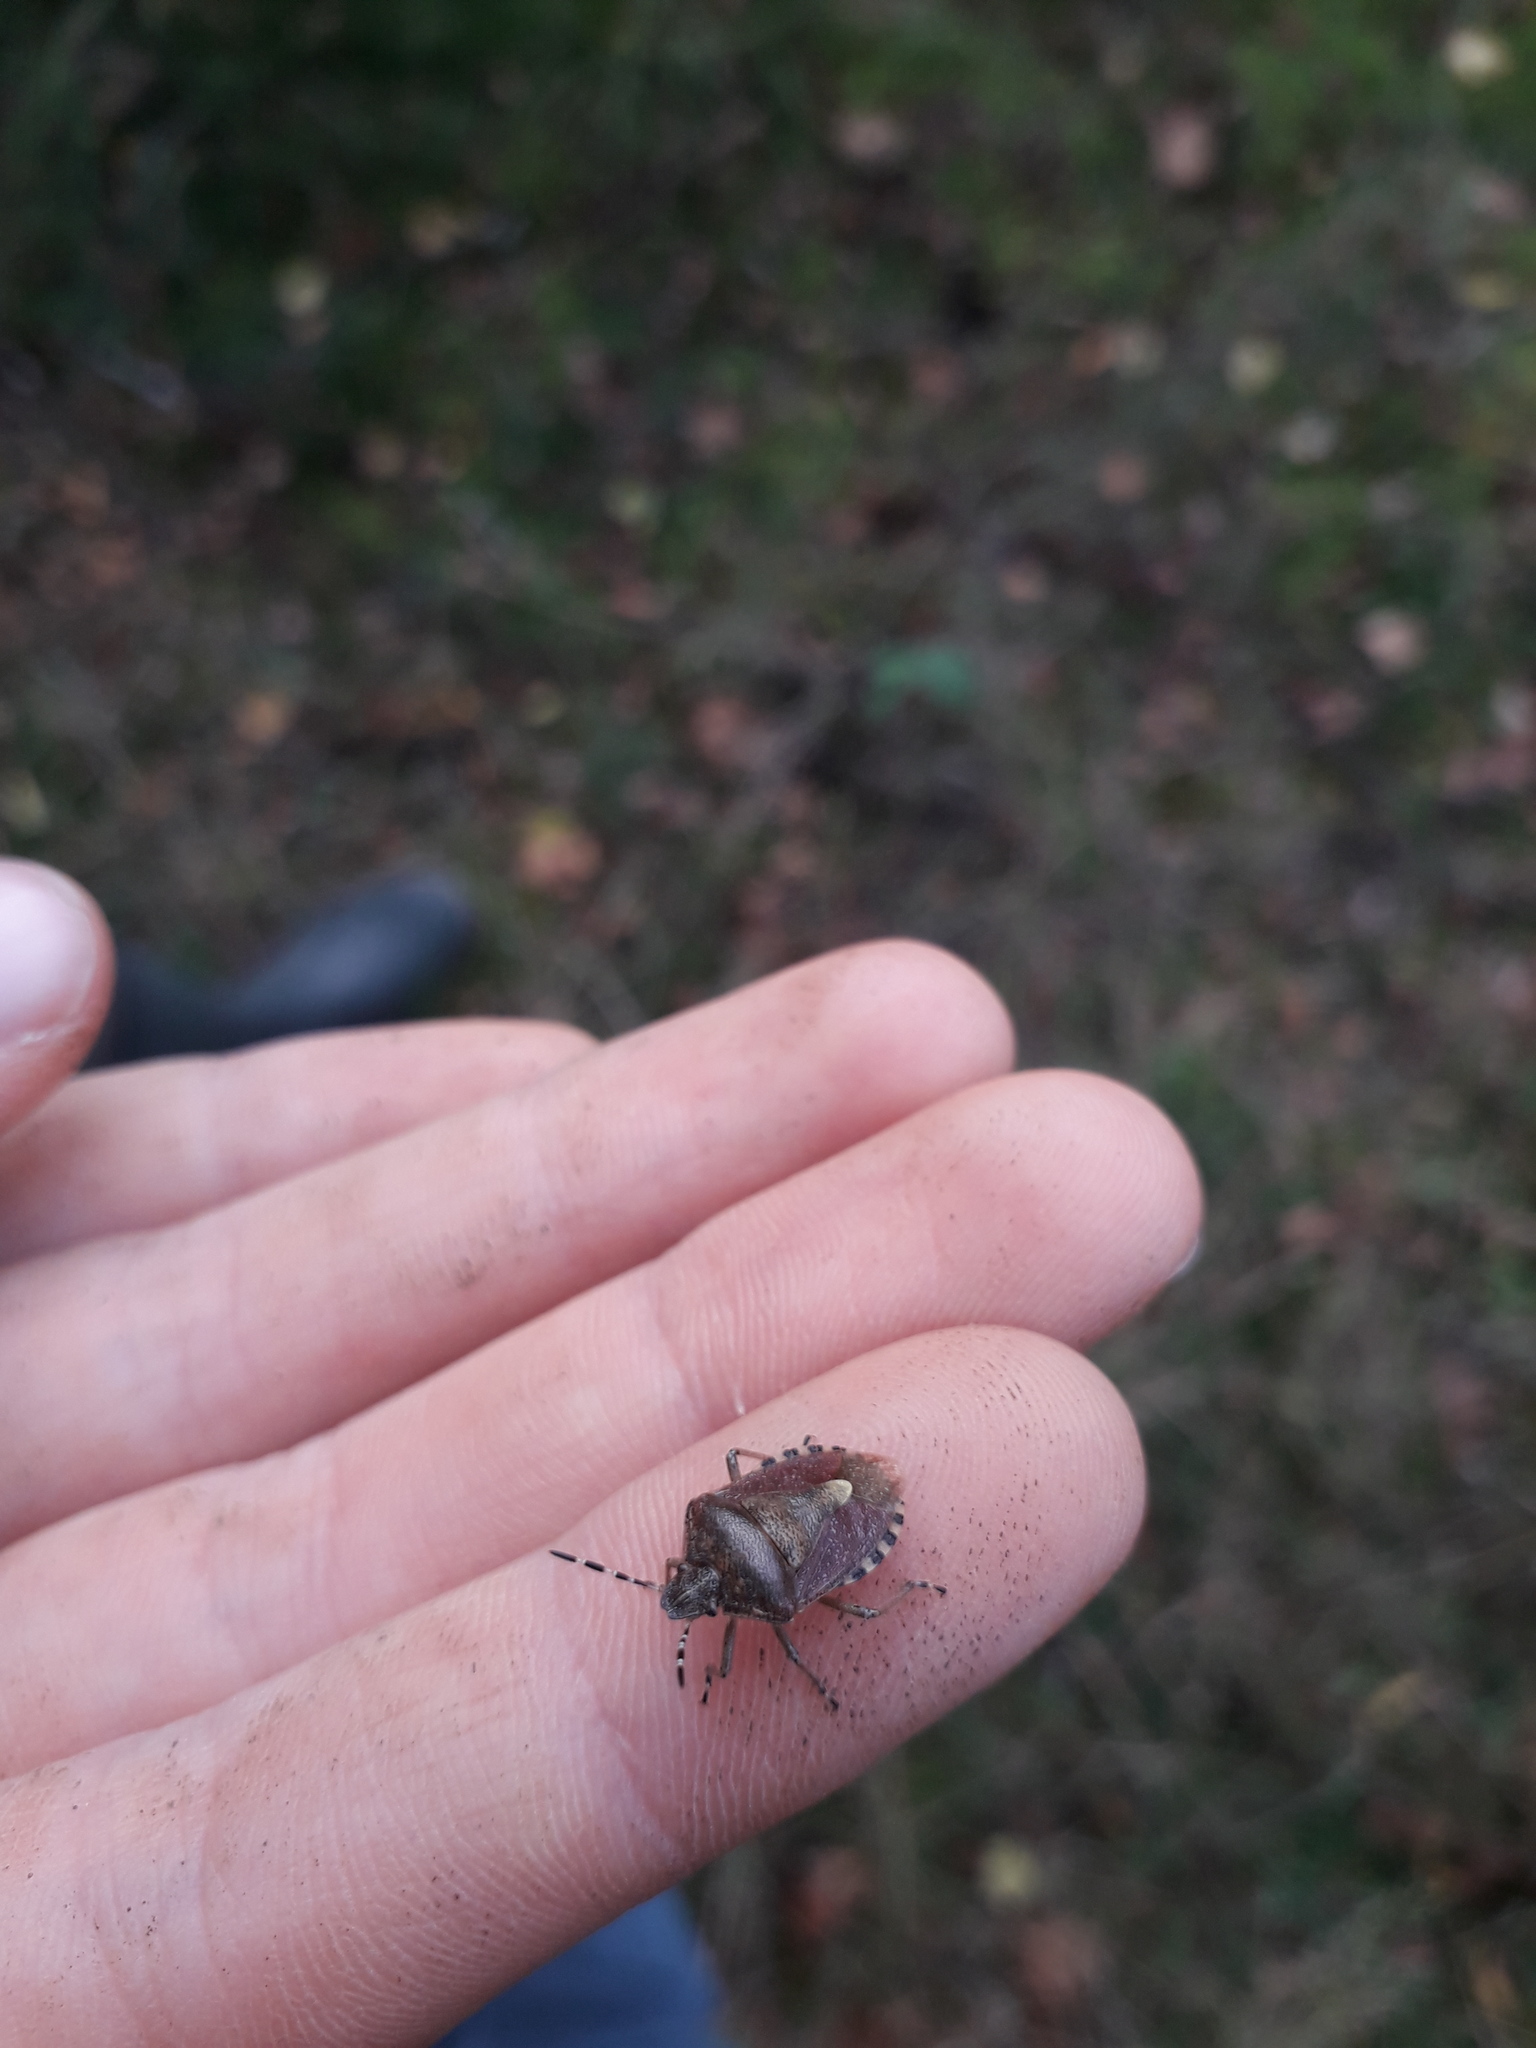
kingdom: Animalia
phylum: Arthropoda
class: Insecta
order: Hemiptera
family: Pentatomidae
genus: Dolycoris
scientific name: Dolycoris baccarum
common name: Sloe bug
